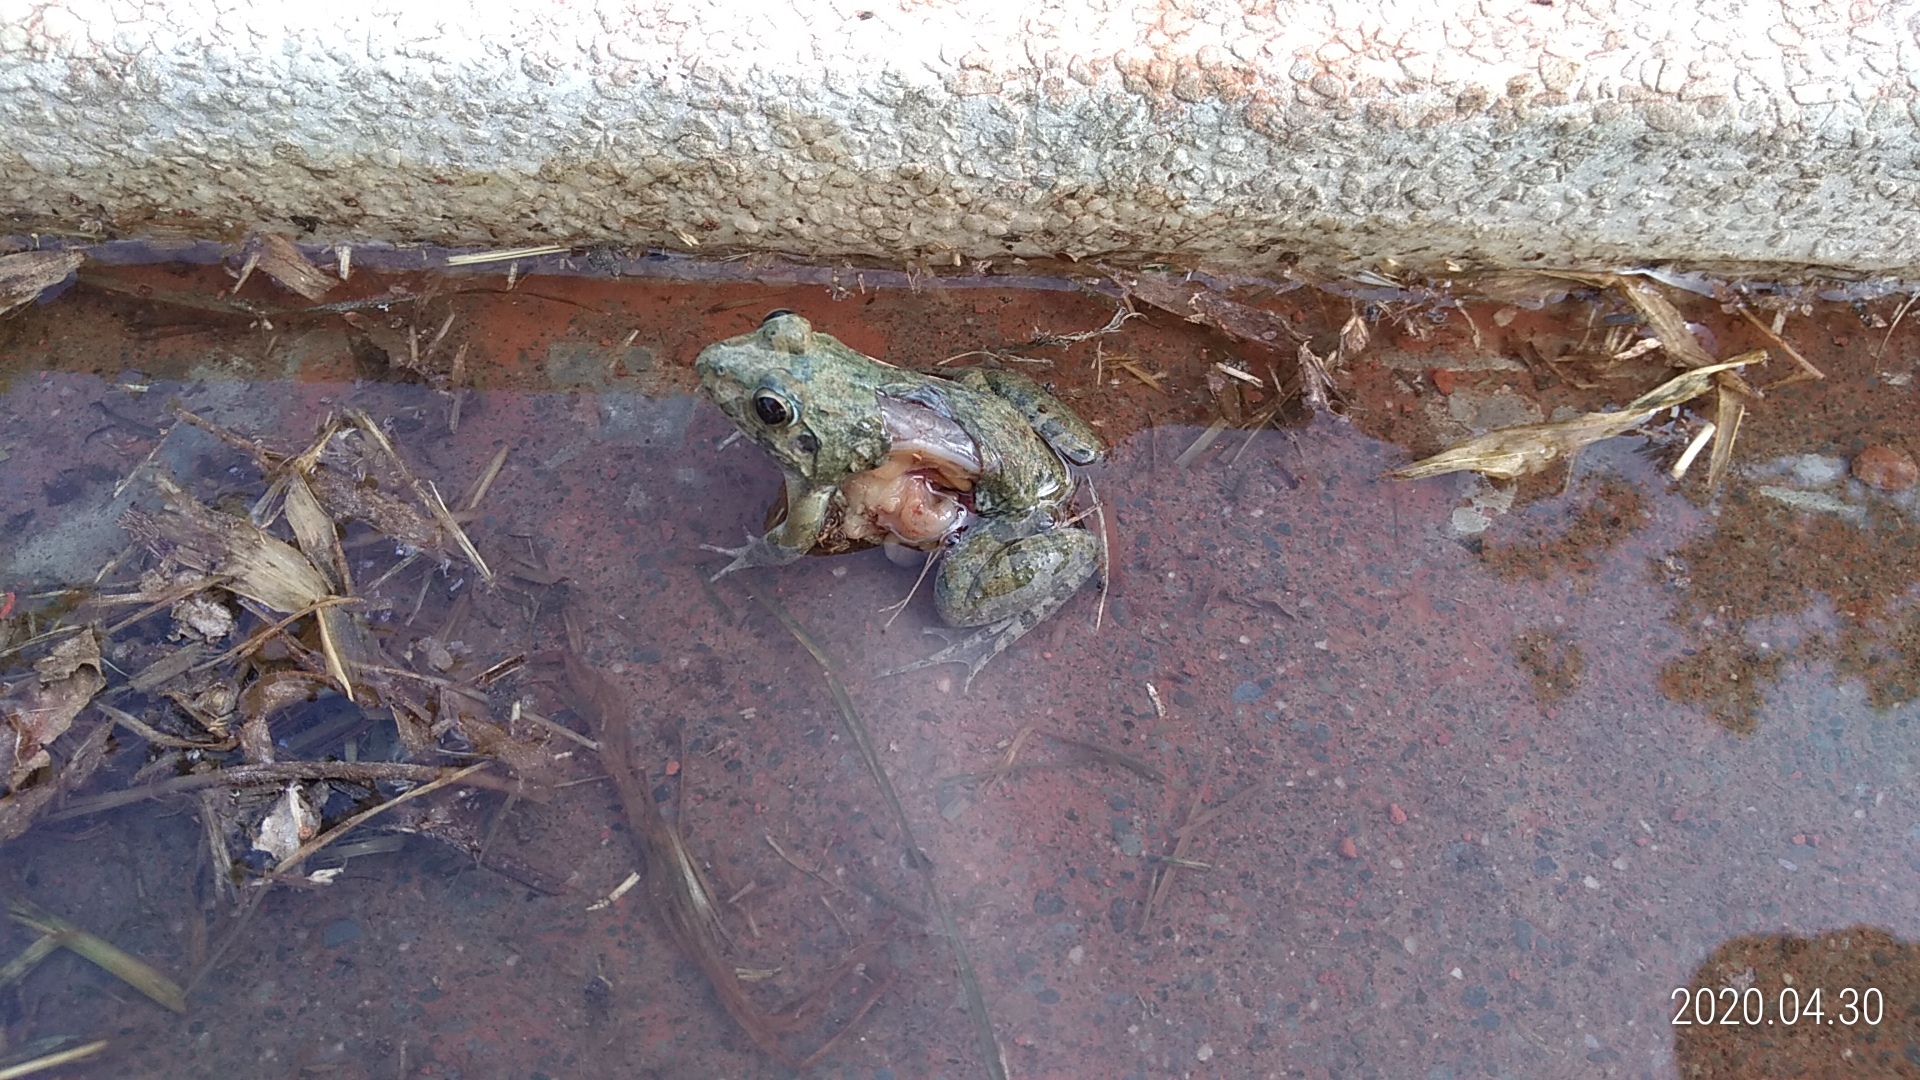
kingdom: Animalia
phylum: Chordata
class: Amphibia
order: Anura
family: Dicroglossidae
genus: Fejervarya
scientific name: Fejervarya limnocharis
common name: Asian grass frog/common pond frog/field frog/grass frog/indian rice frog
